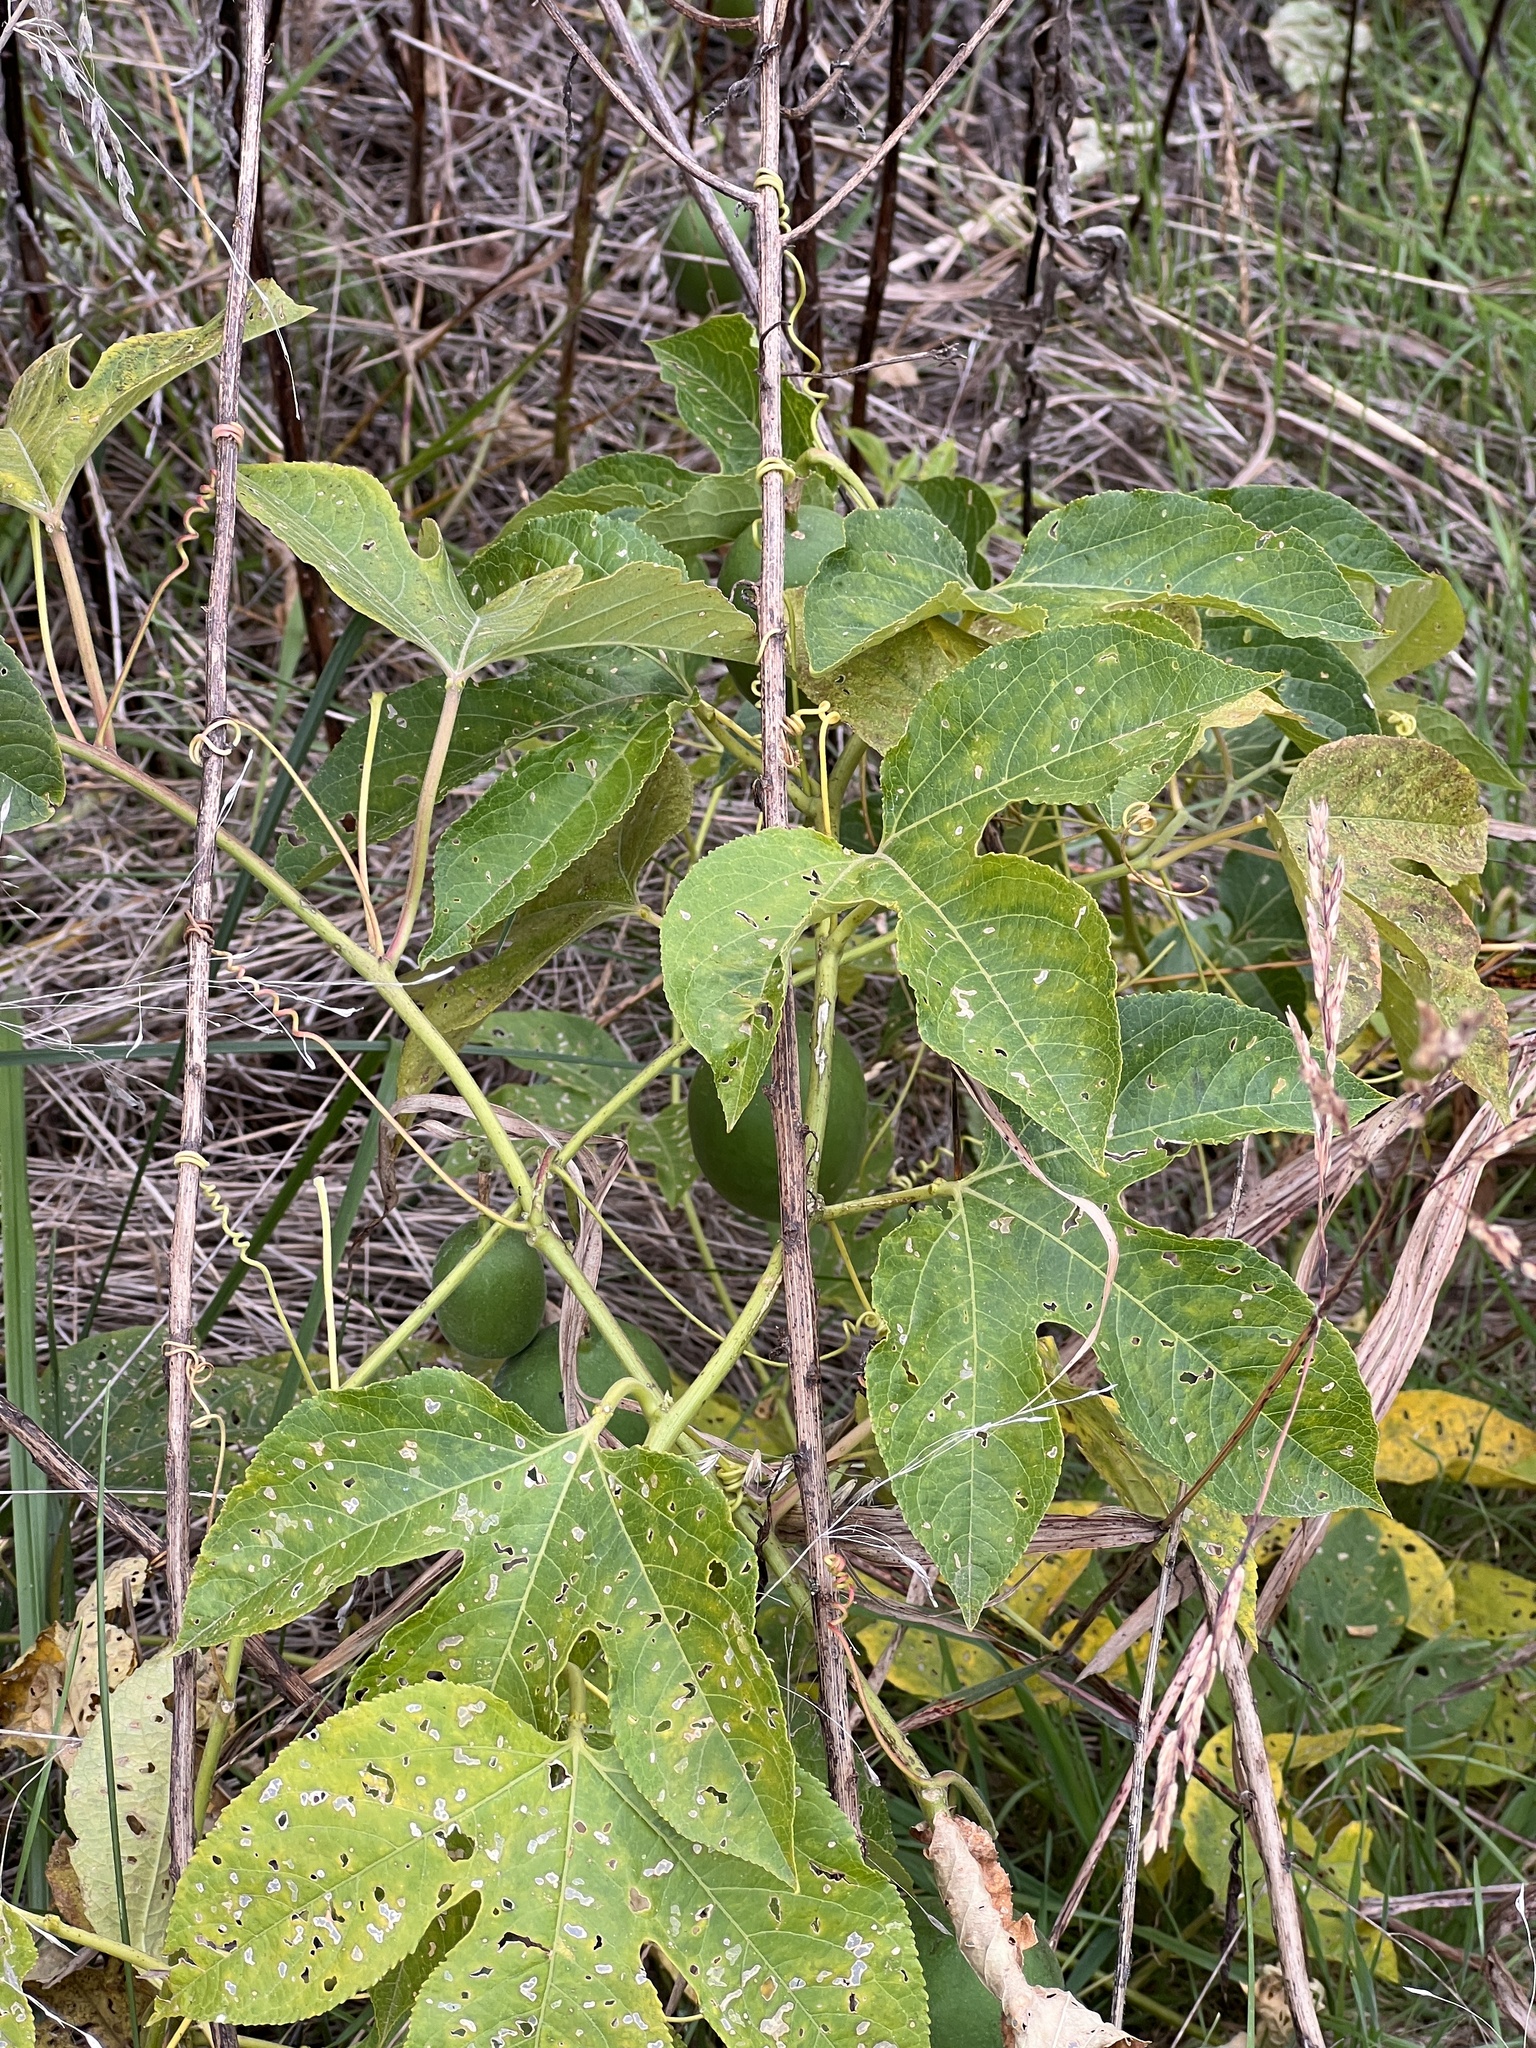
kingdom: Plantae
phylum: Tracheophyta
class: Magnoliopsida
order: Malpighiales
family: Passifloraceae
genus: Passiflora
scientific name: Passiflora incarnata
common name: Apricot-vine
